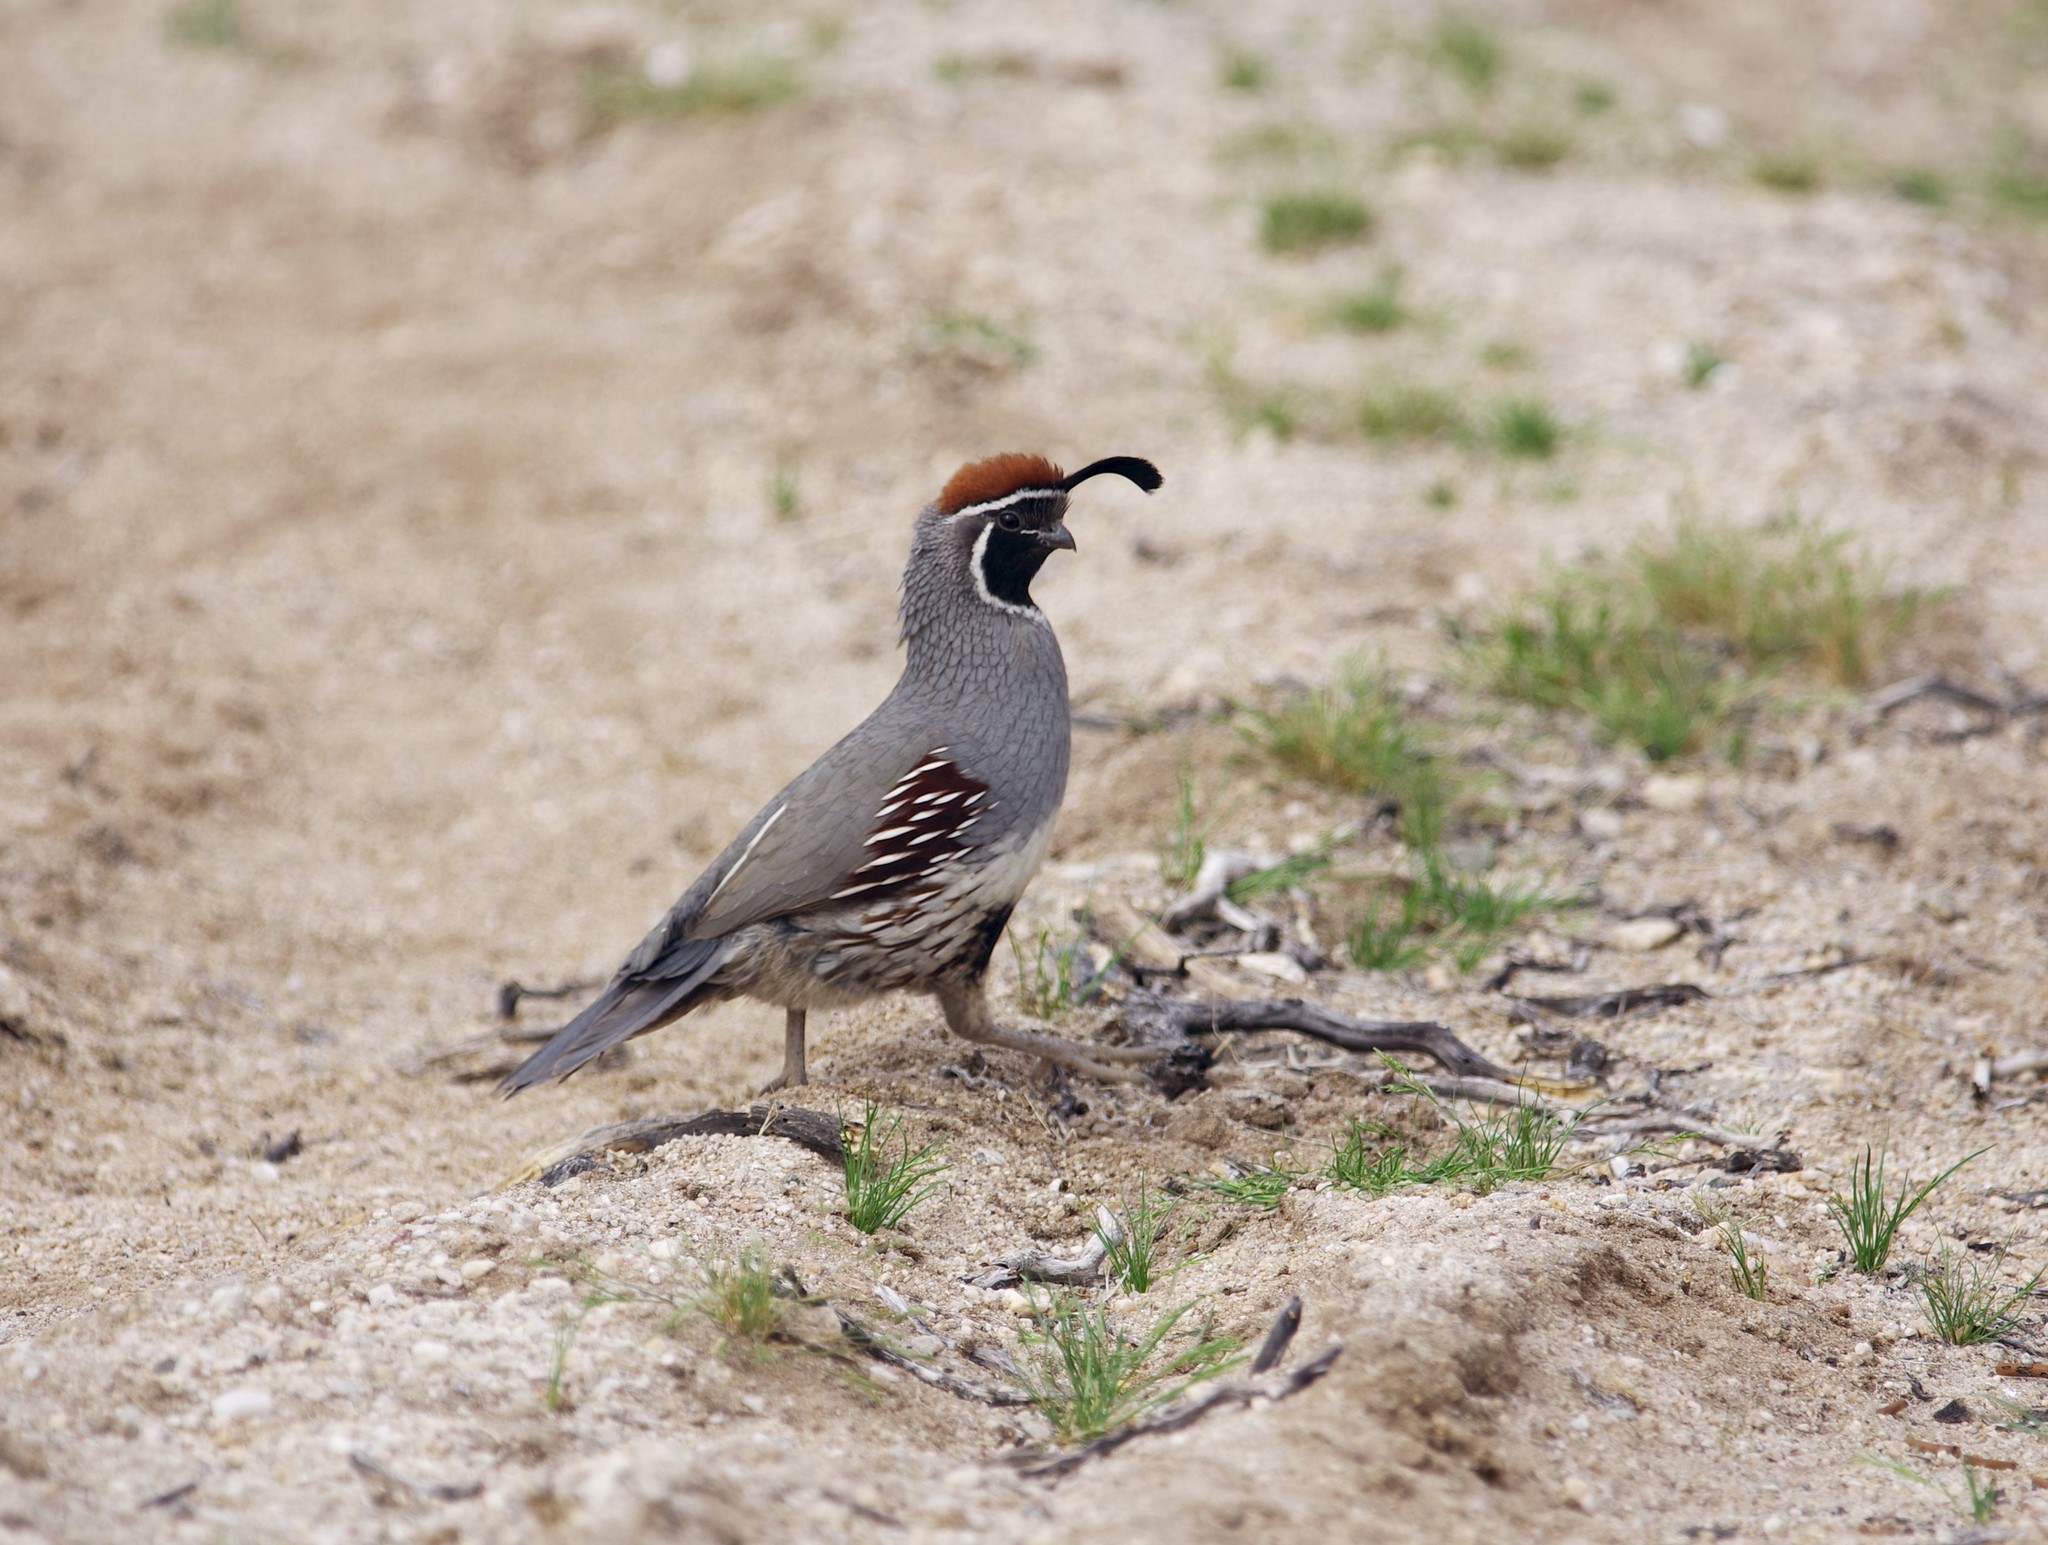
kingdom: Animalia
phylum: Chordata
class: Aves
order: Galliformes
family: Odontophoridae
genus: Callipepla
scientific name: Callipepla gambelii
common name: Gambel's quail
